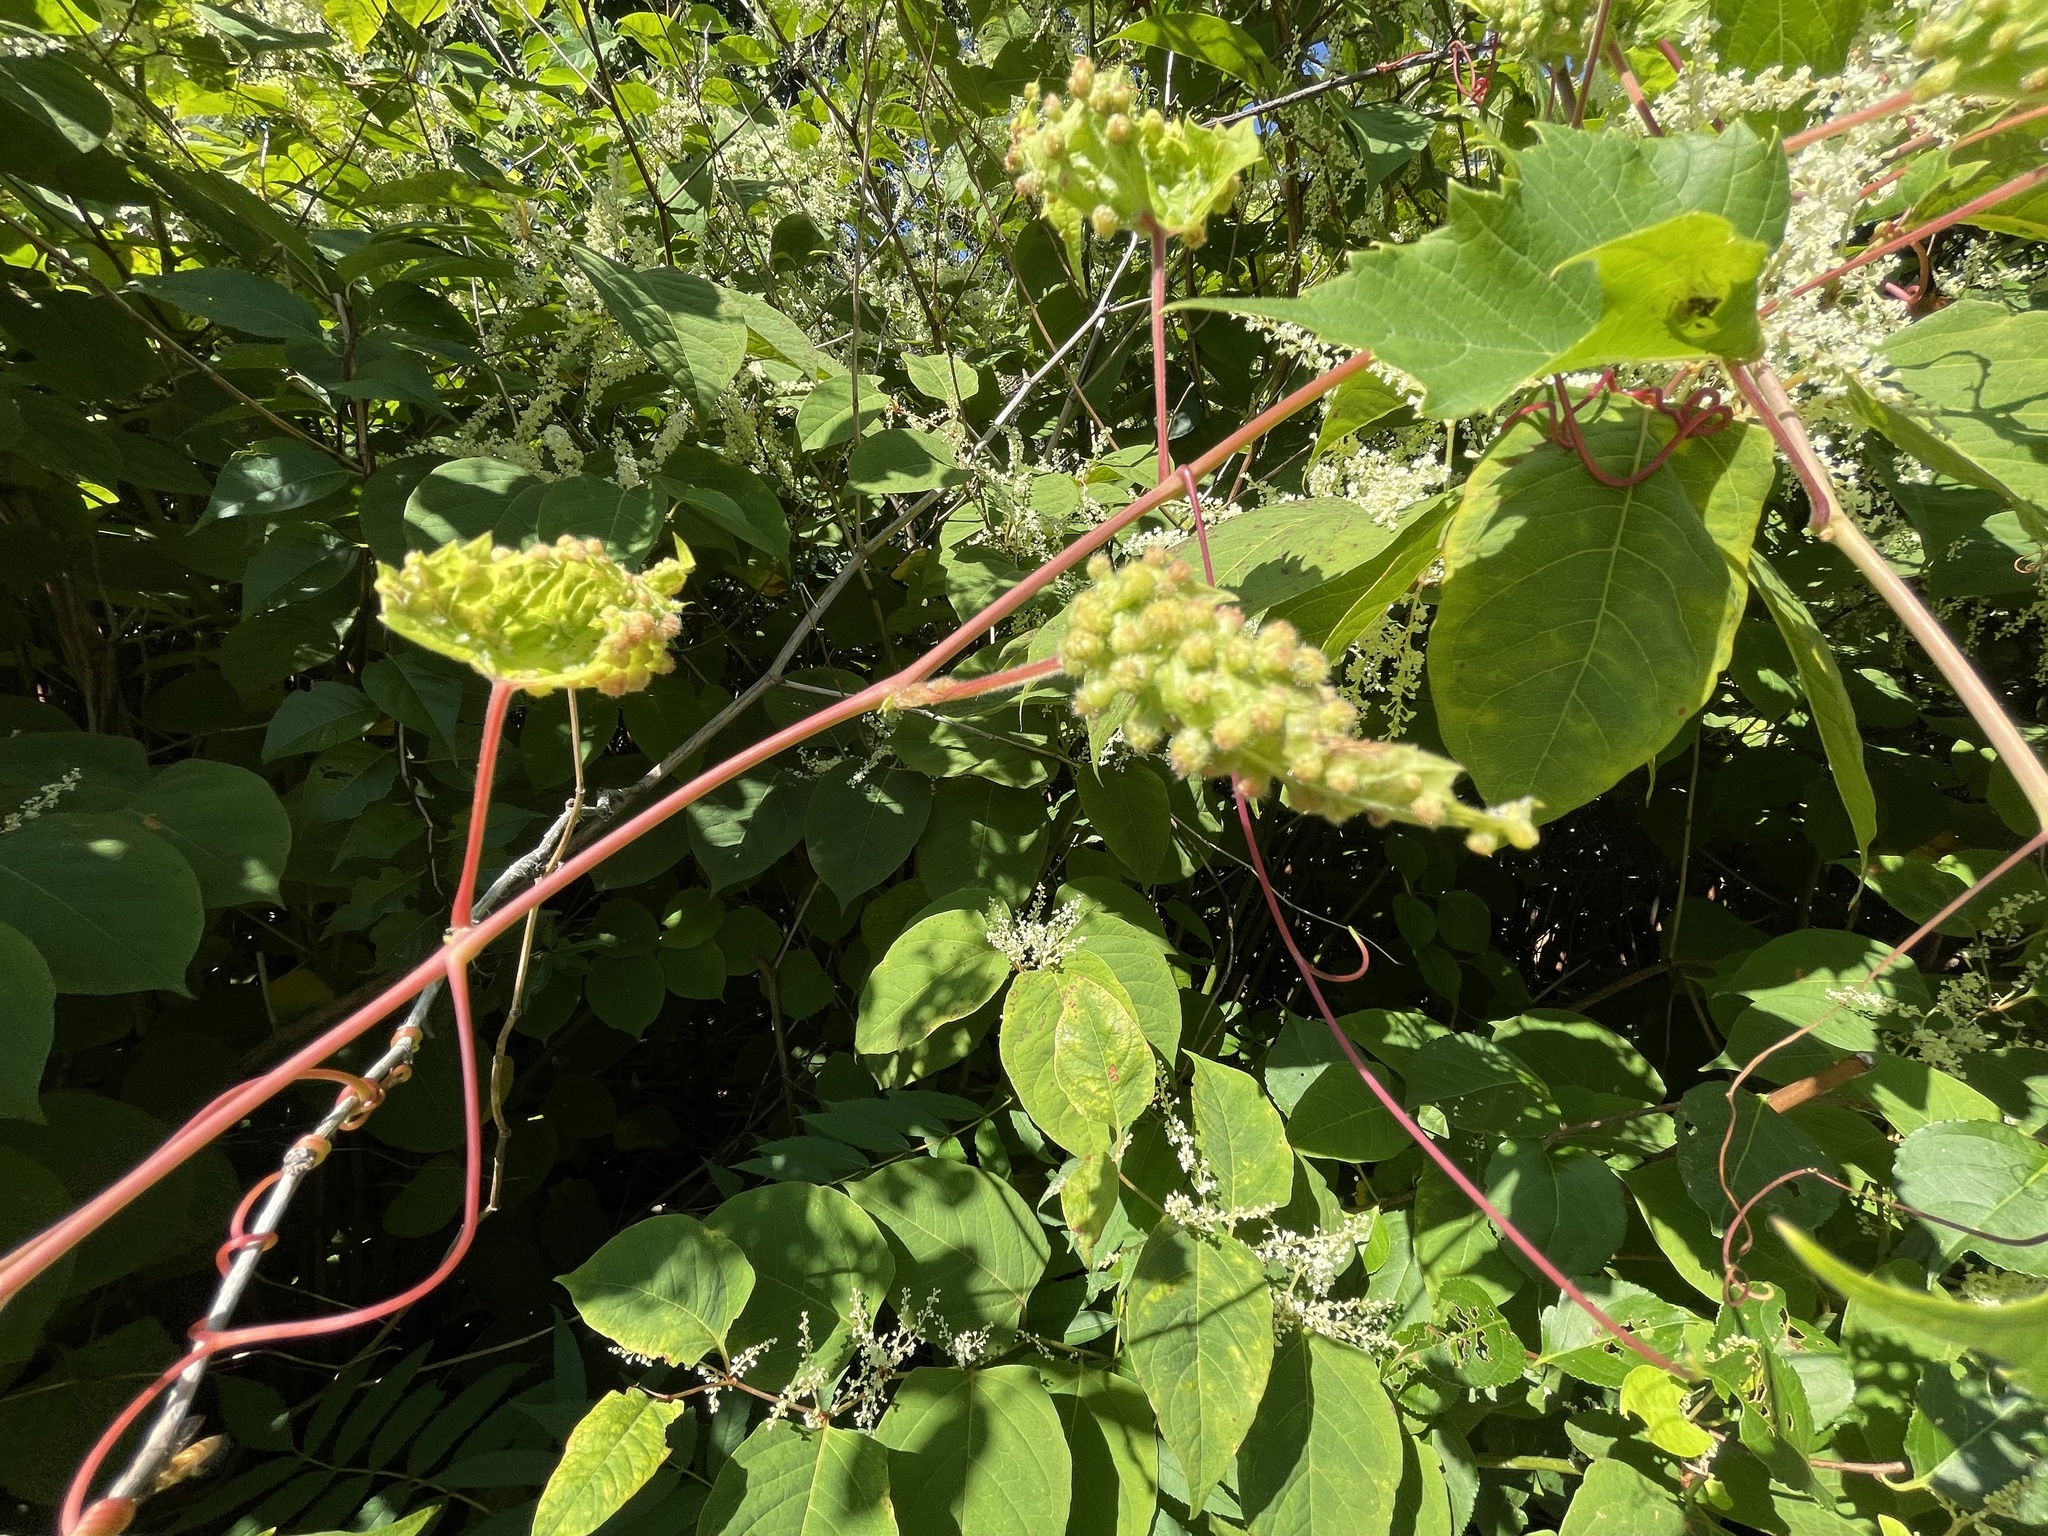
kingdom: Animalia
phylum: Arthropoda
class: Insecta
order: Hemiptera
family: Phylloxeridae
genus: Daktulosphaira
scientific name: Daktulosphaira vitifoliae
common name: Grape phylloxera
